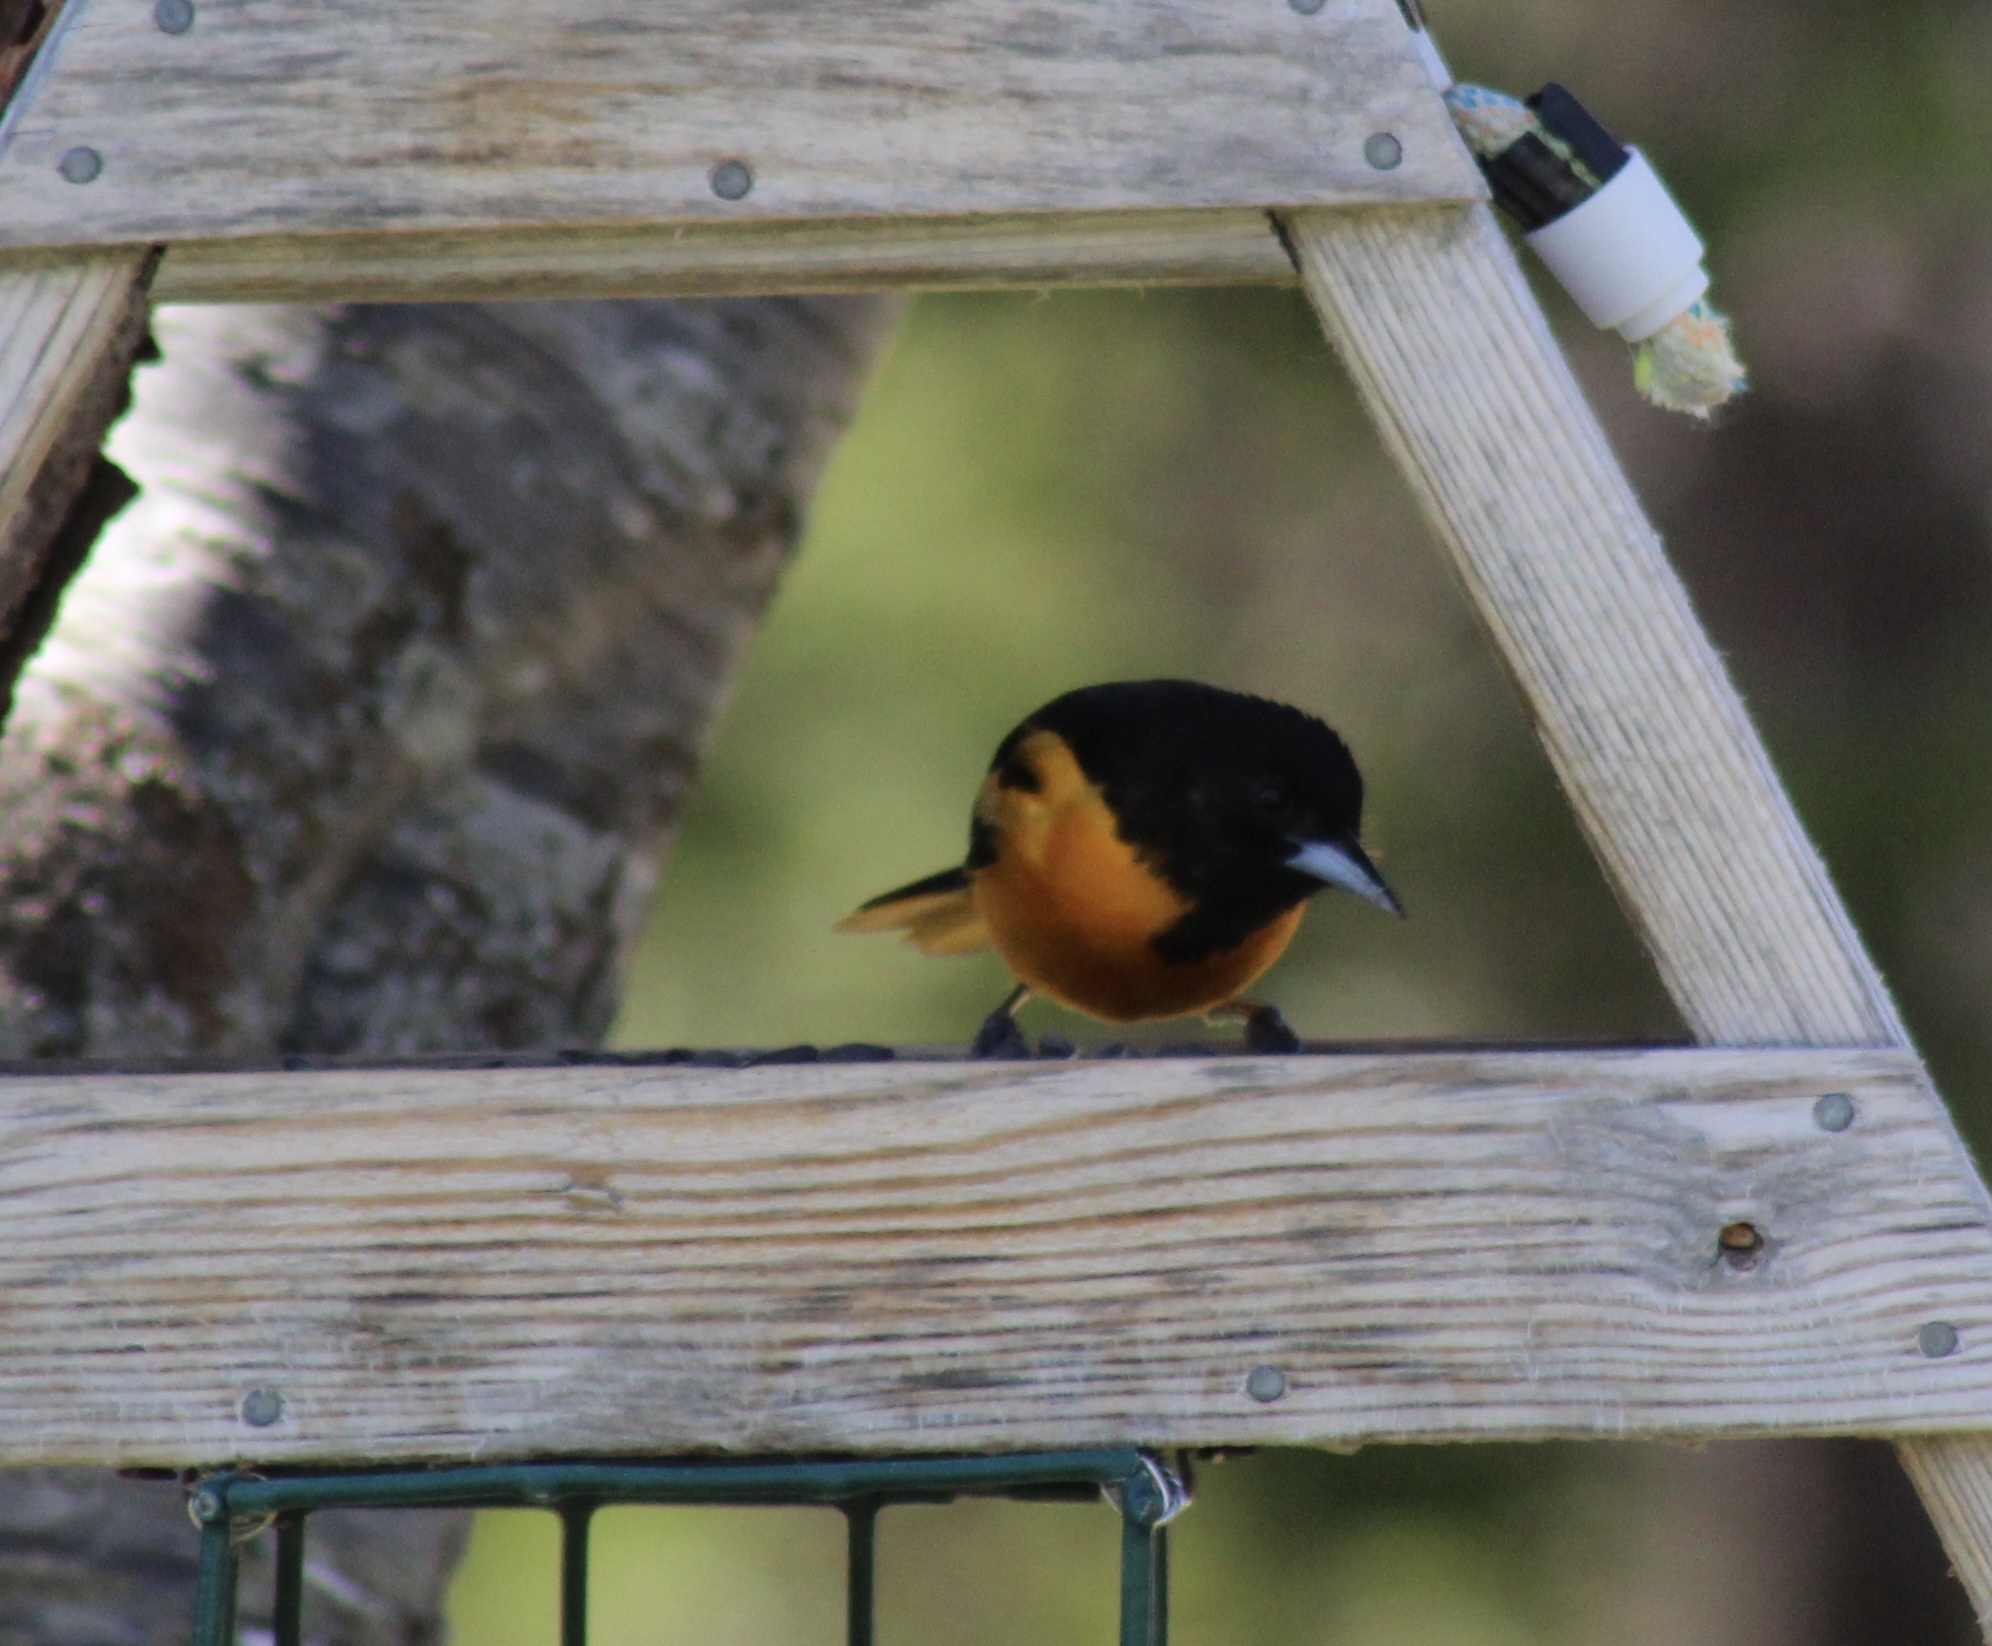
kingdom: Animalia
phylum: Chordata
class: Aves
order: Passeriformes
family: Icteridae
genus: Icterus
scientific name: Icterus galbula
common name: Baltimore oriole
